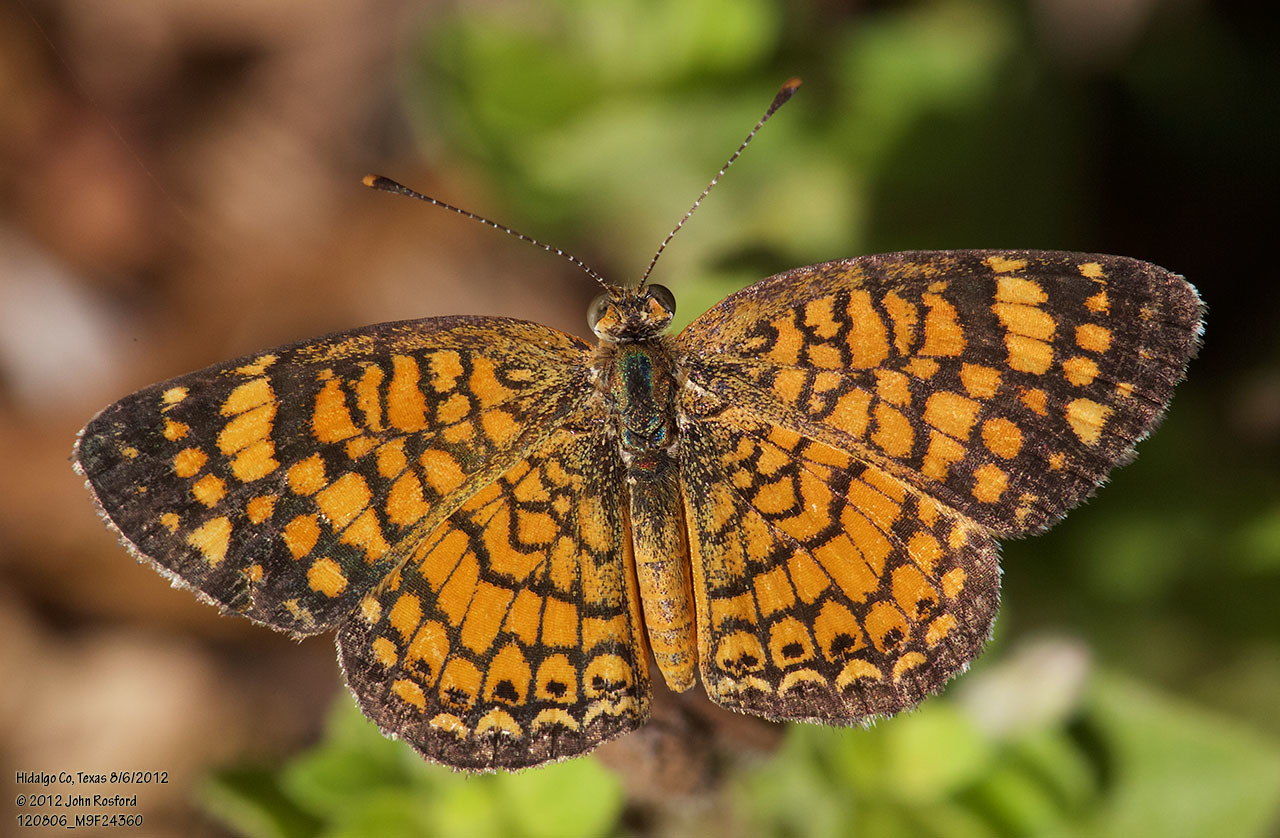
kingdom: Animalia
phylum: Arthropoda
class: Insecta
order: Lepidoptera
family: Nymphalidae
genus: Phyciodes
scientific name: Phyciodes vesta
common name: Vesta crescent
